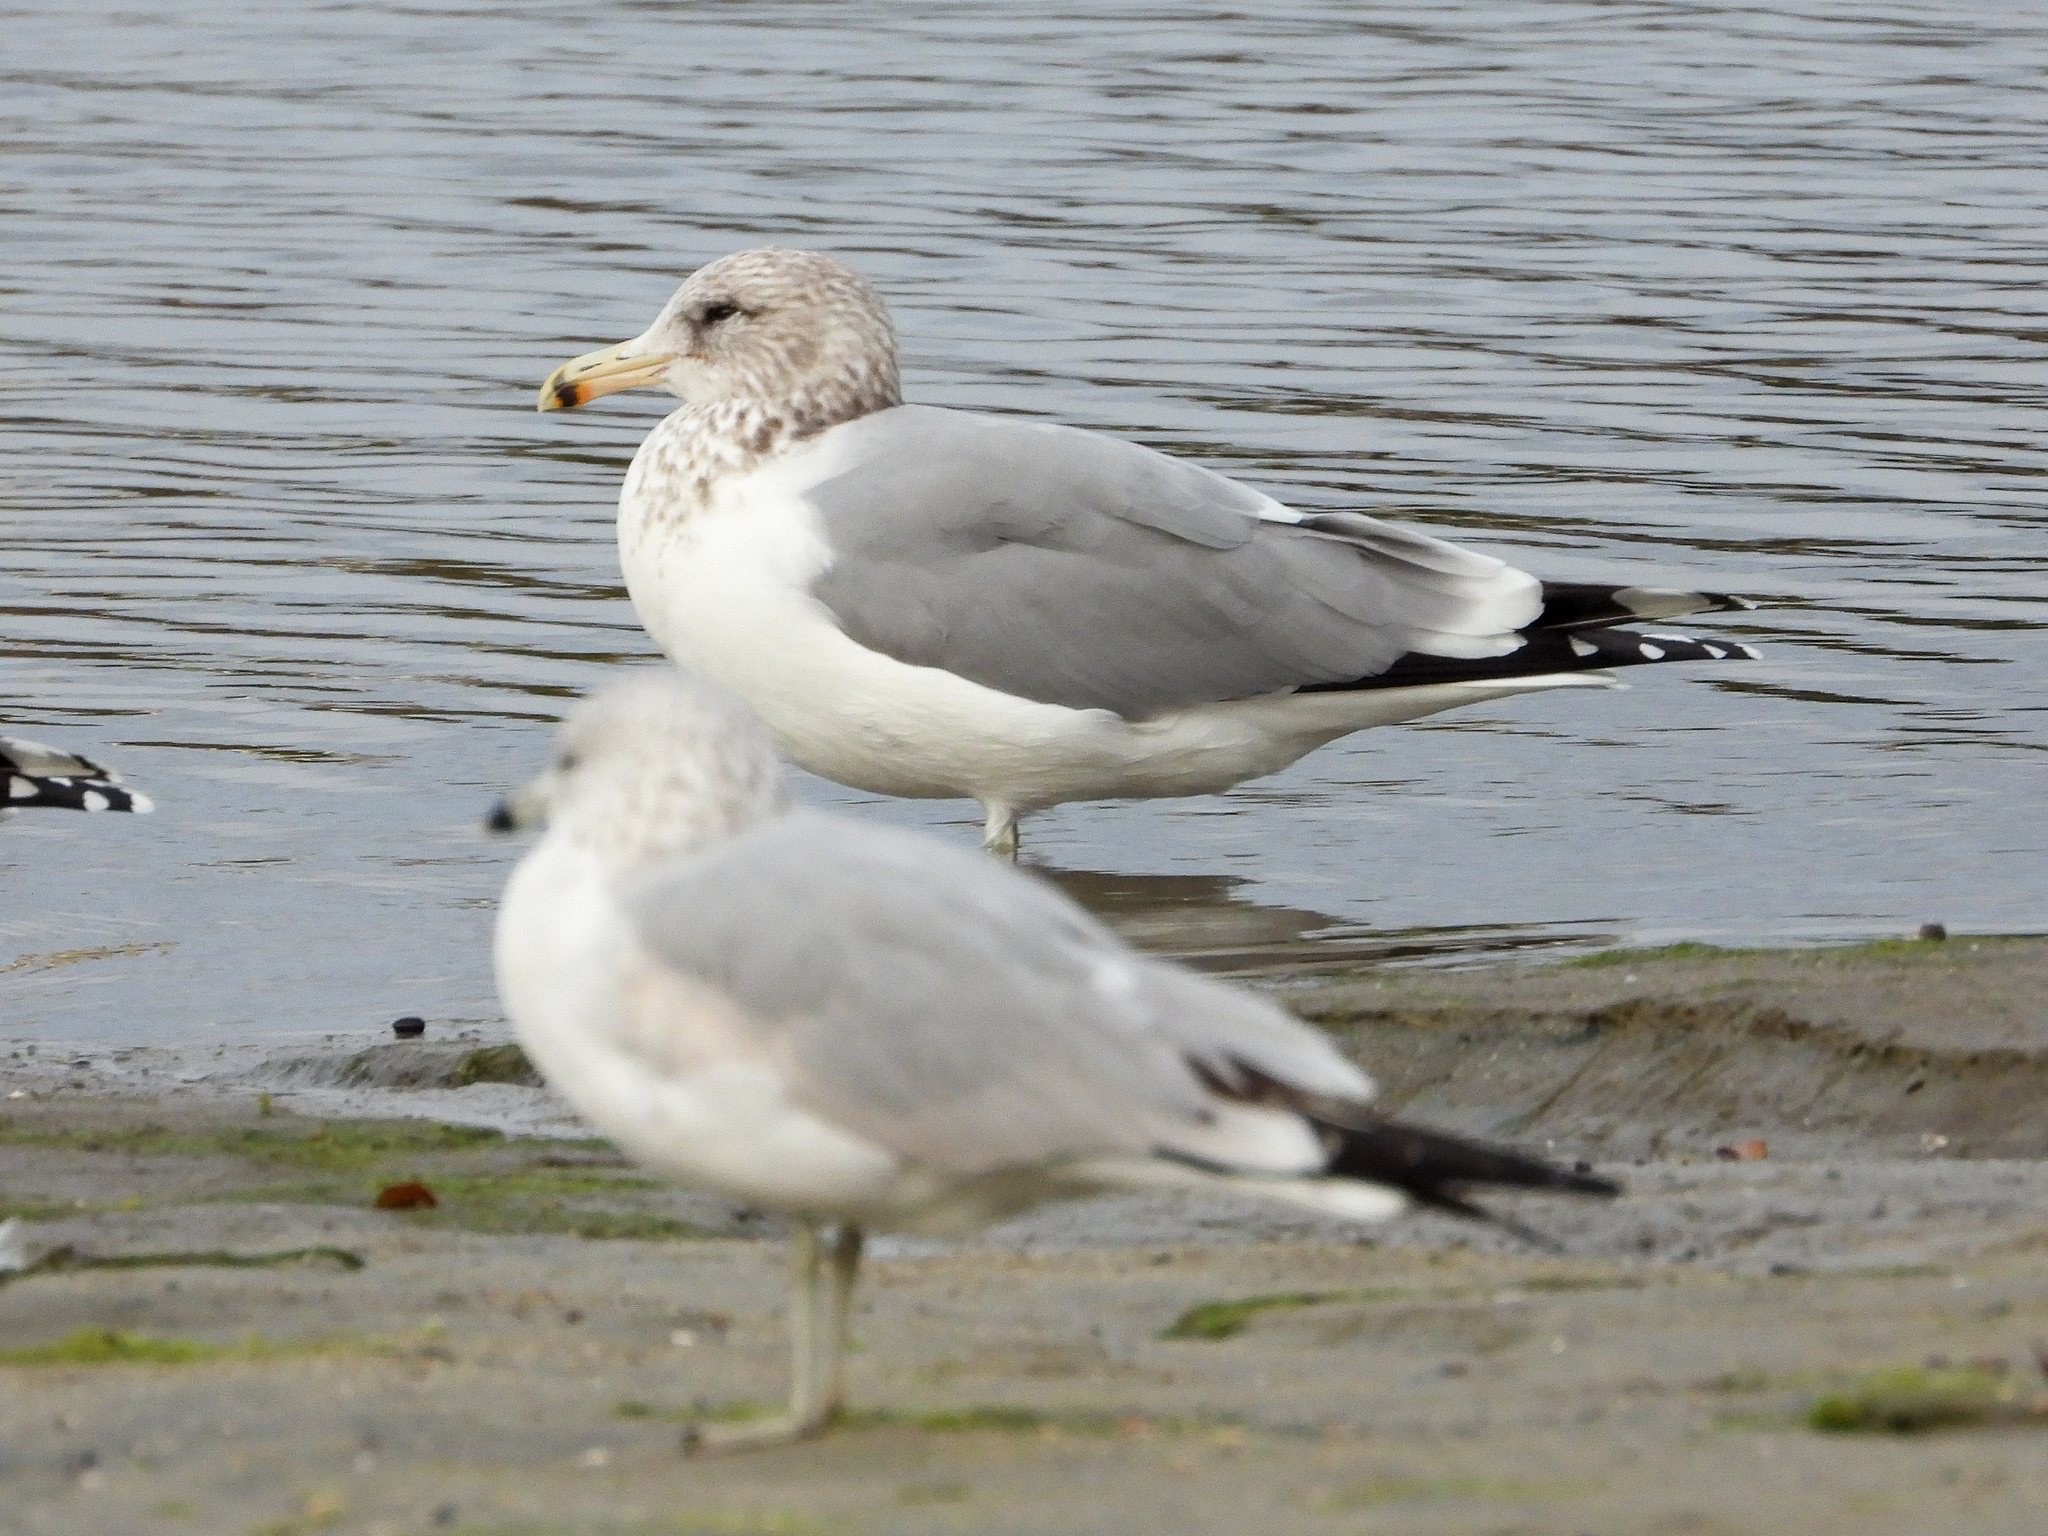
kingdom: Animalia
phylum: Chordata
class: Aves
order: Charadriiformes
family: Laridae
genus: Larus
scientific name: Larus californicus
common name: California gull
